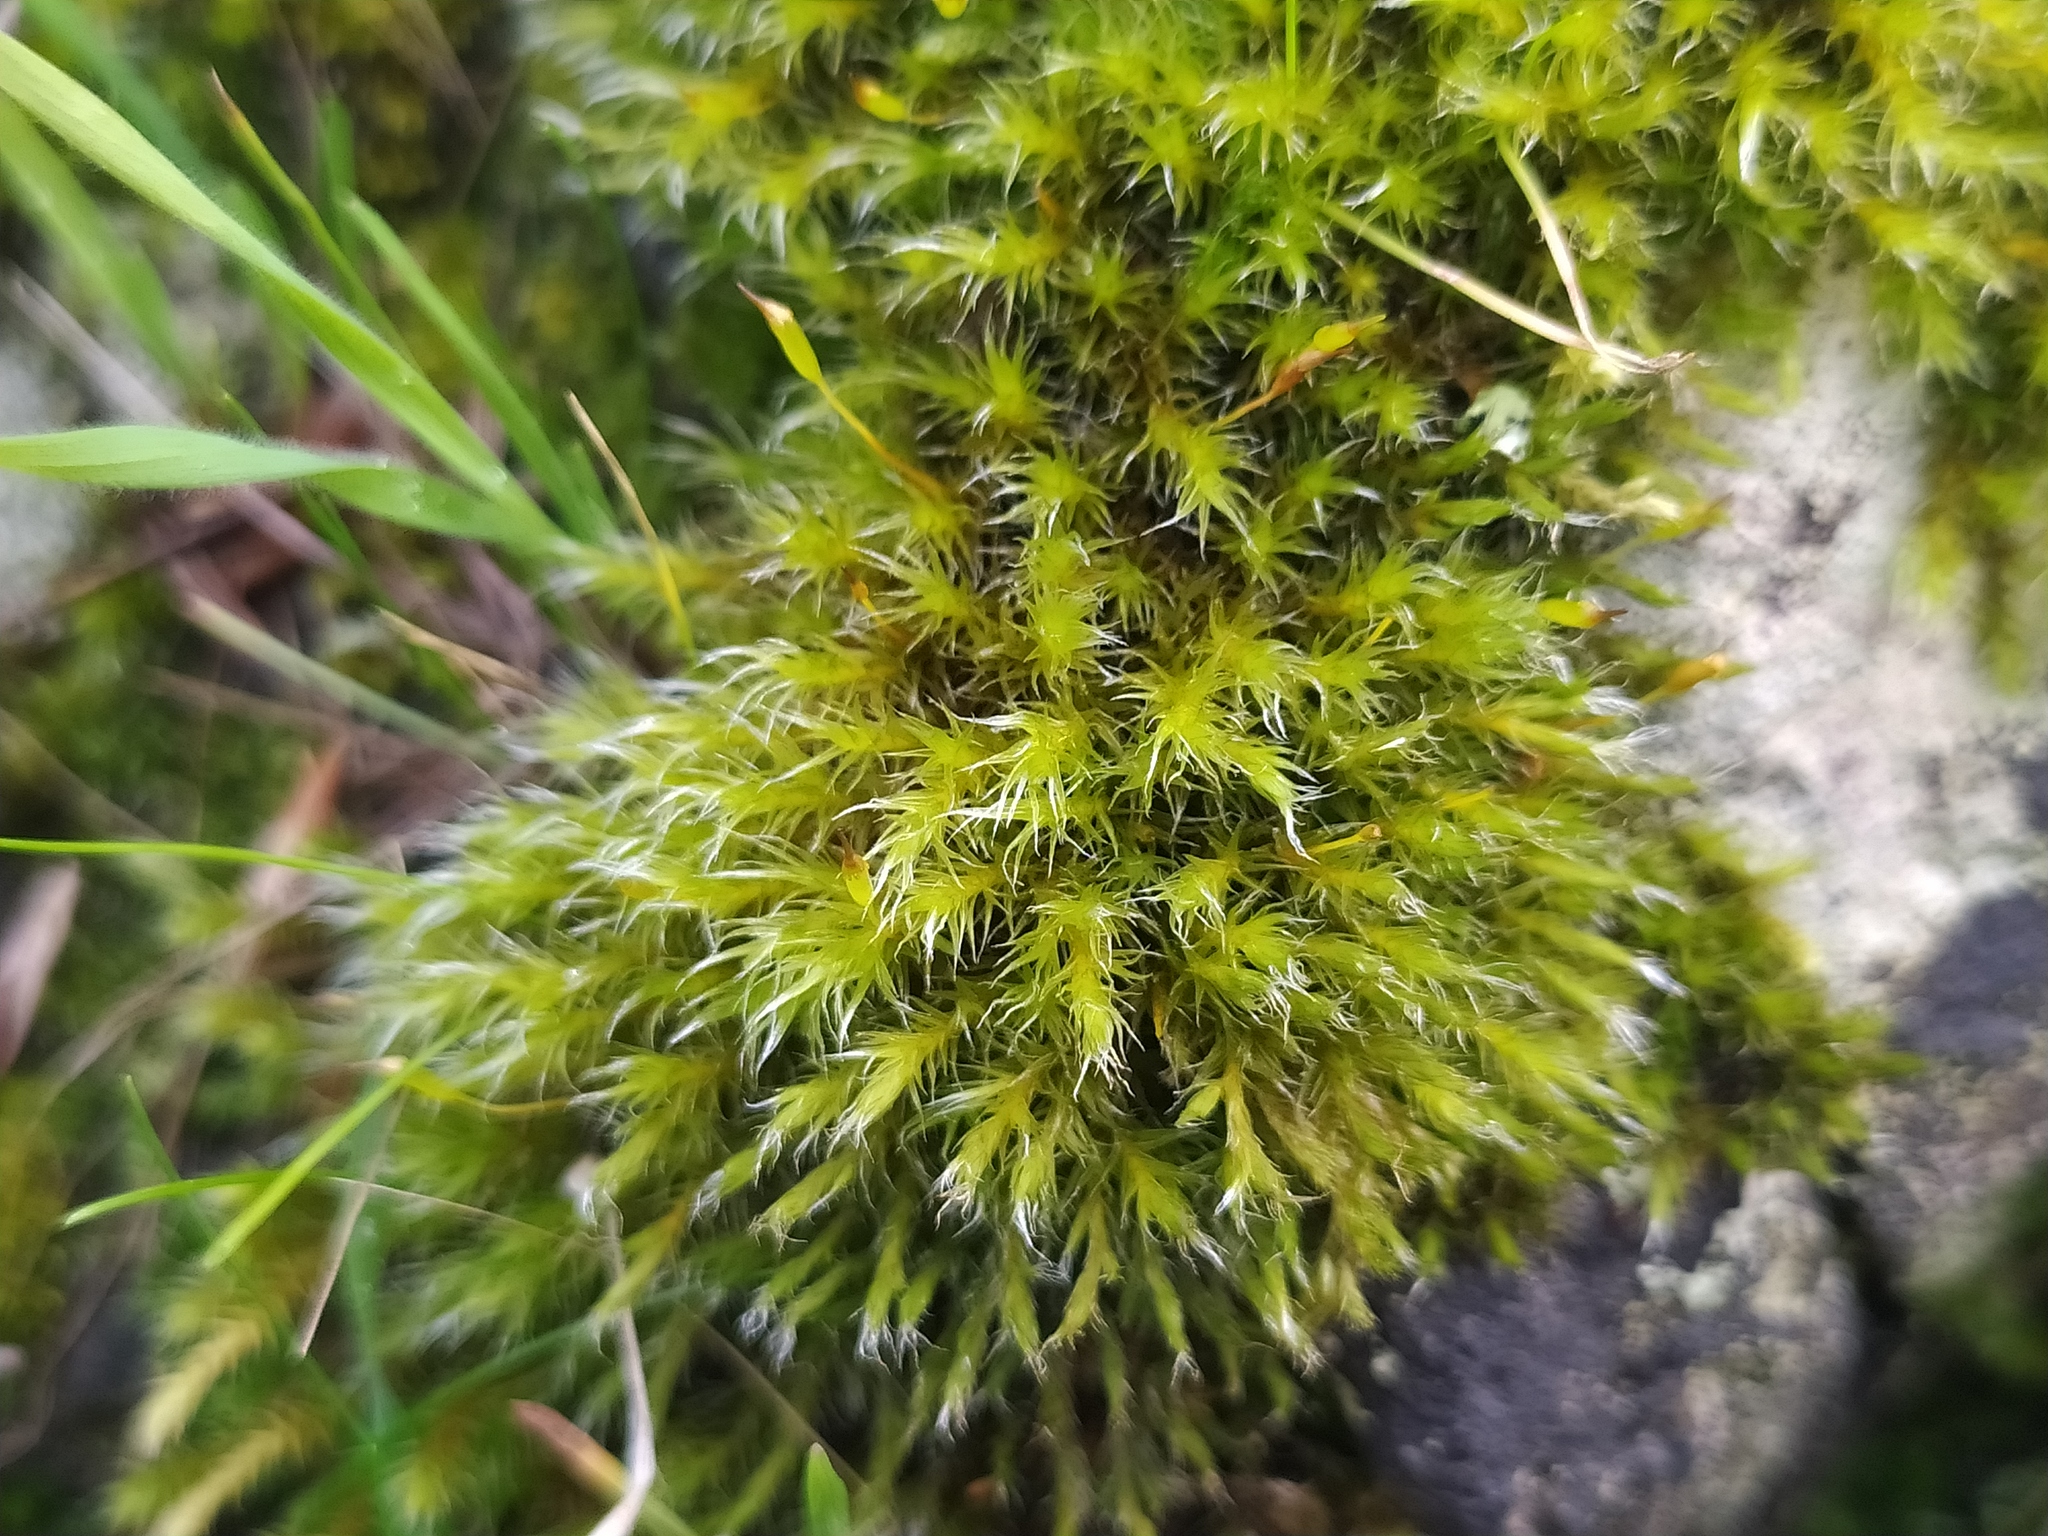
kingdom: Plantae
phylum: Bryophyta
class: Bryopsida
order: Grimmiales
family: Grimmiaceae
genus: Bucklandiella
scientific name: Bucklandiella heterosticha
